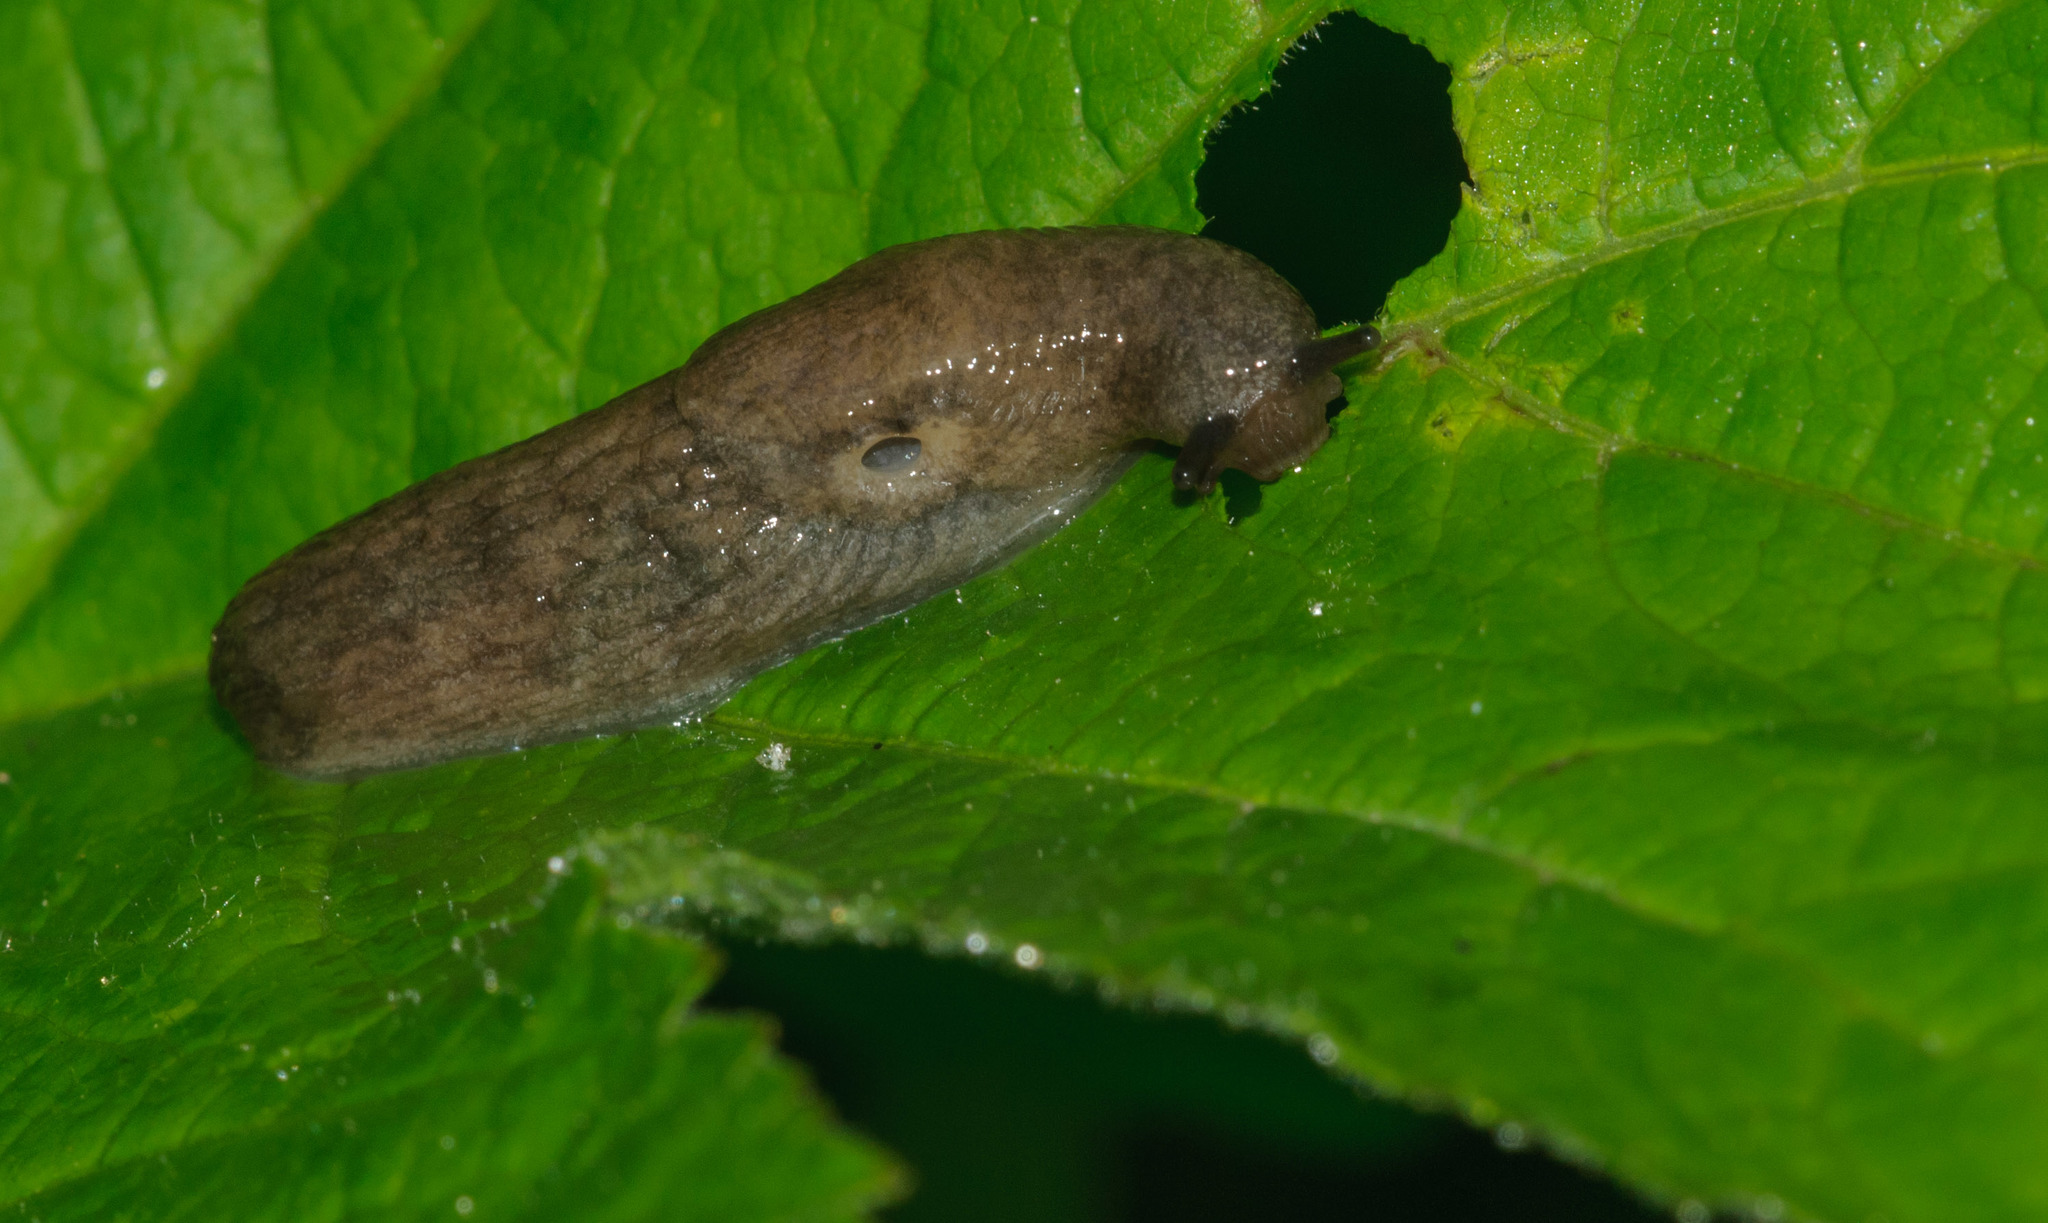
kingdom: Animalia
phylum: Mollusca
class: Gastropoda
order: Stylommatophora
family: Agriolimacidae
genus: Deroceras
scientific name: Deroceras reticulatum
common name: Gray field slug
